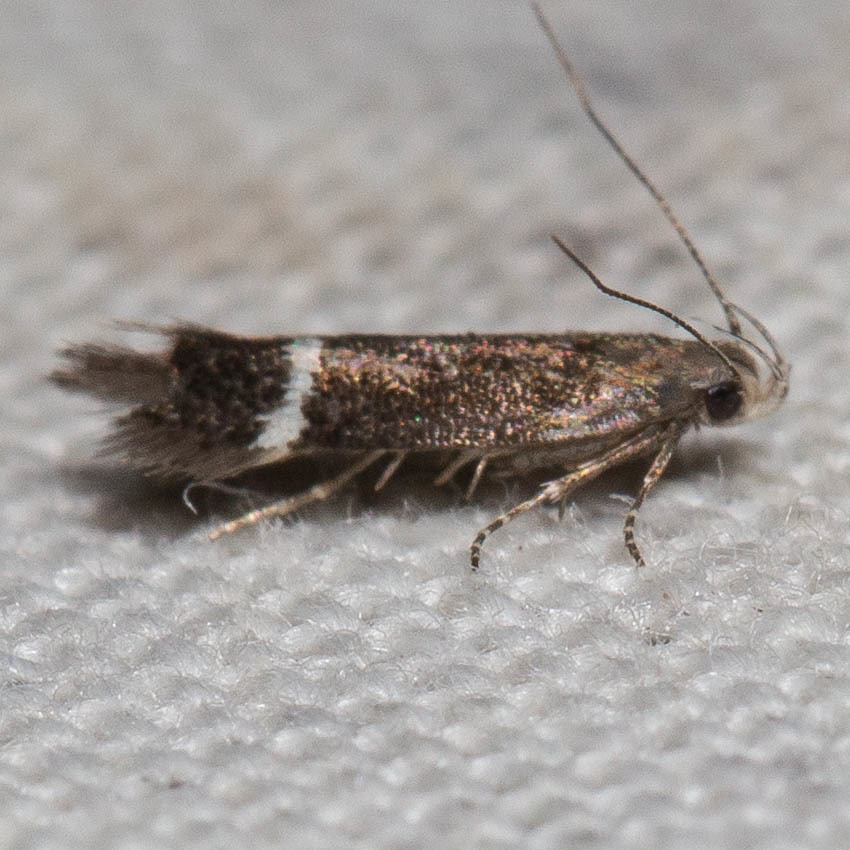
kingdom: Animalia
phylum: Arthropoda
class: Insecta
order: Lepidoptera
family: Gelechiidae
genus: Aproaerema
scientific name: Aproaerema nigrella
